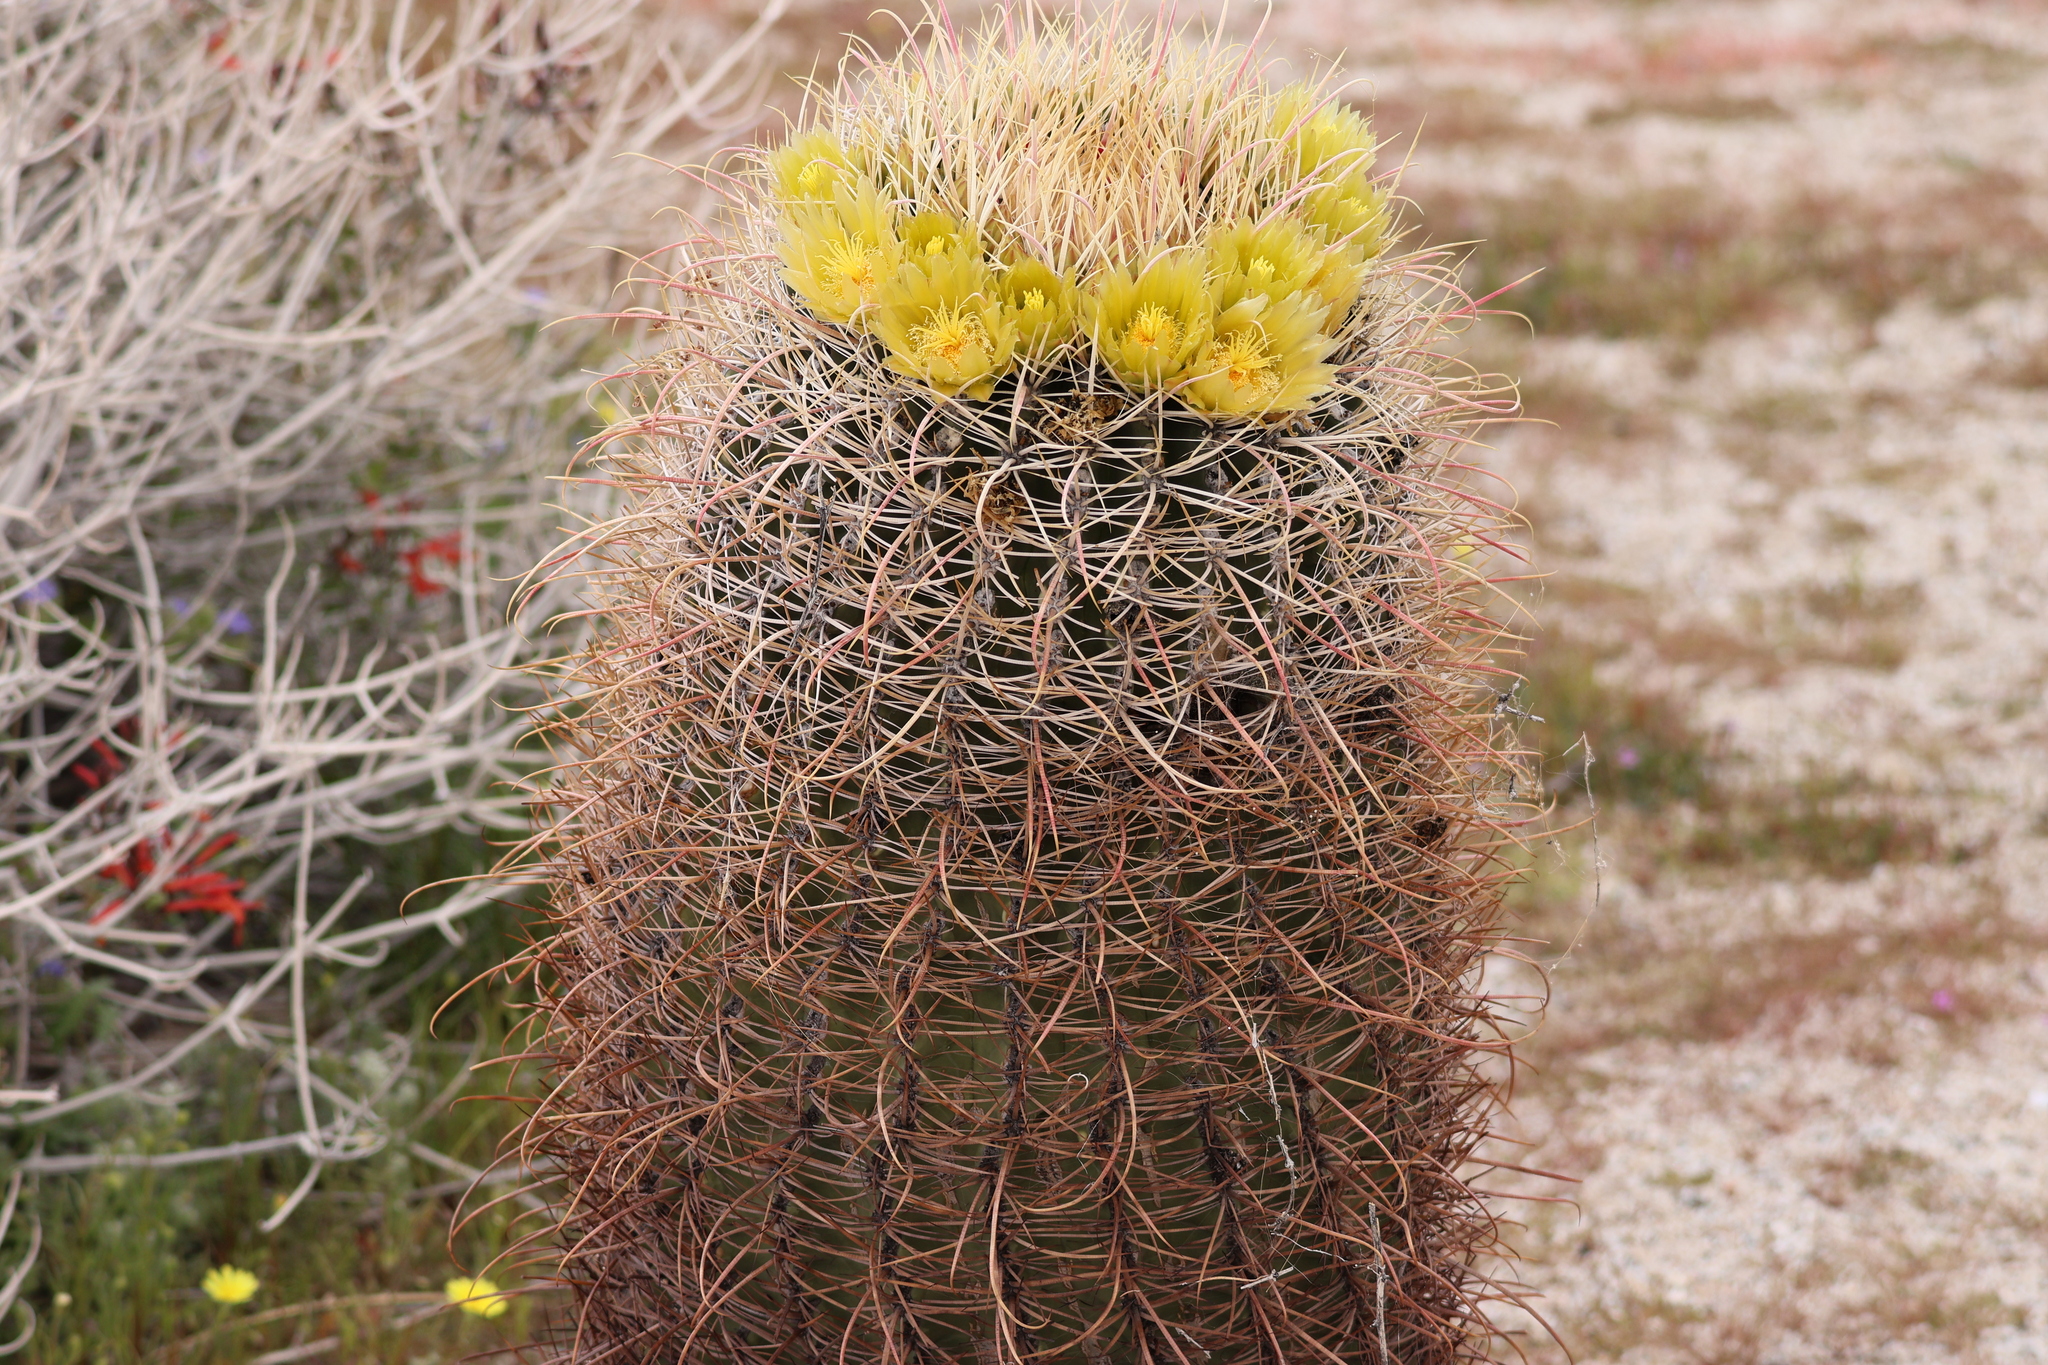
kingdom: Plantae
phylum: Tracheophyta
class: Magnoliopsida
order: Caryophyllales
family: Cactaceae
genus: Ferocactus
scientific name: Ferocactus cylindraceus
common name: California barrel cactus
